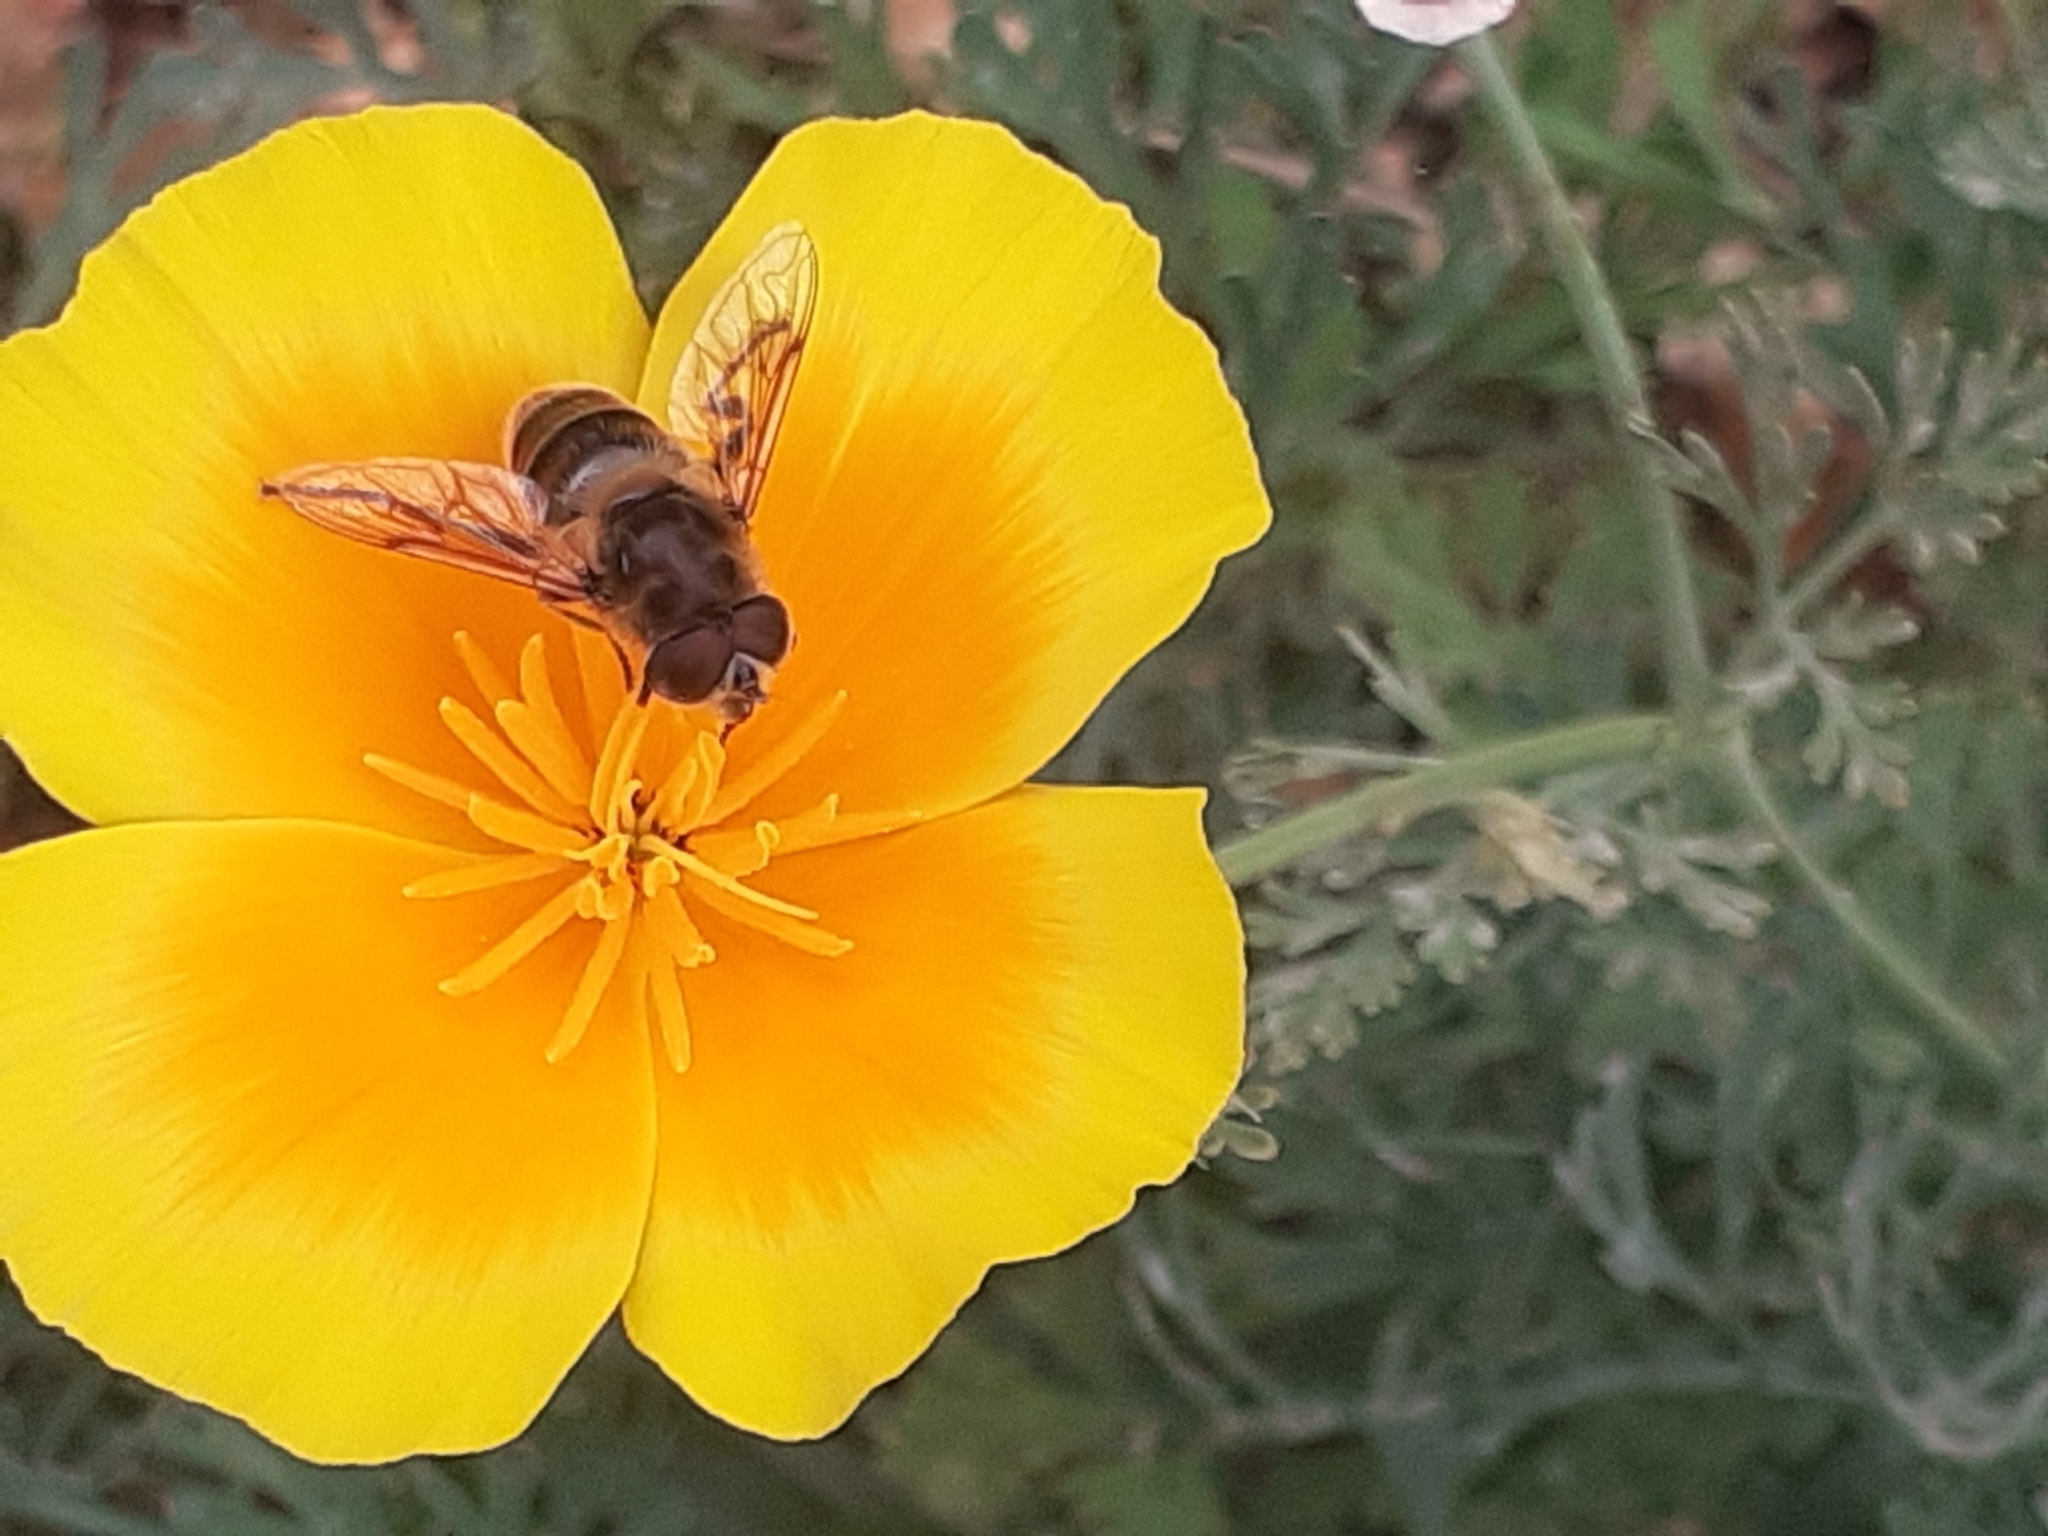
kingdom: Animalia
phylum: Arthropoda
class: Insecta
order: Diptera
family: Syrphidae
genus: Eristalis
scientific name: Eristalis tenax
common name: Drone fly
